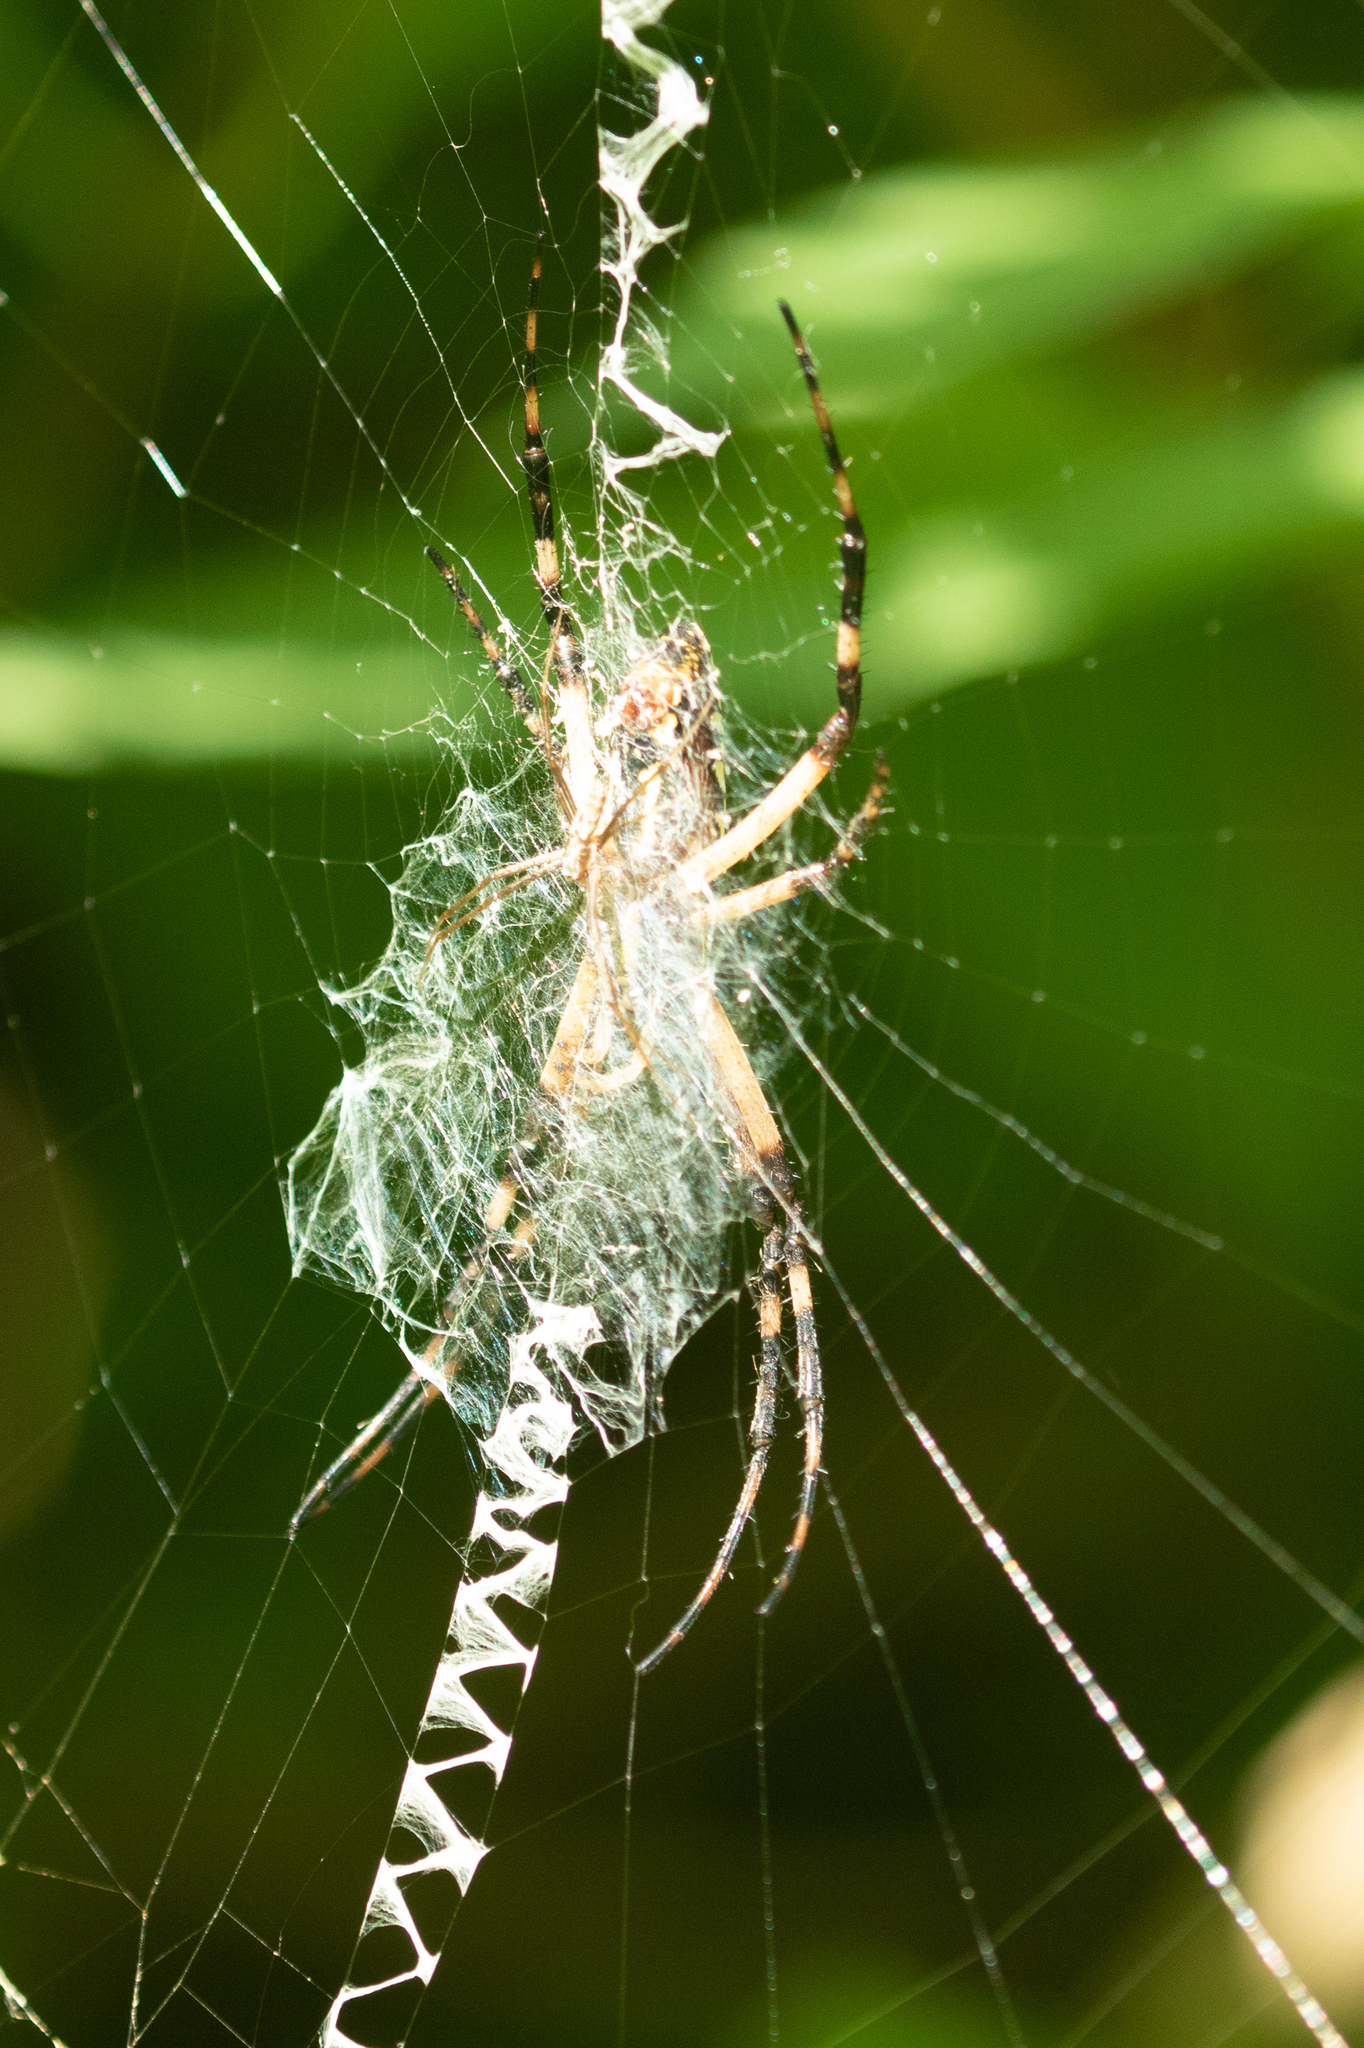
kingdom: Animalia
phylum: Arthropoda
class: Arachnida
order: Araneae
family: Araneidae
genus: Argiope
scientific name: Argiope aurantia
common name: Orb weavers
